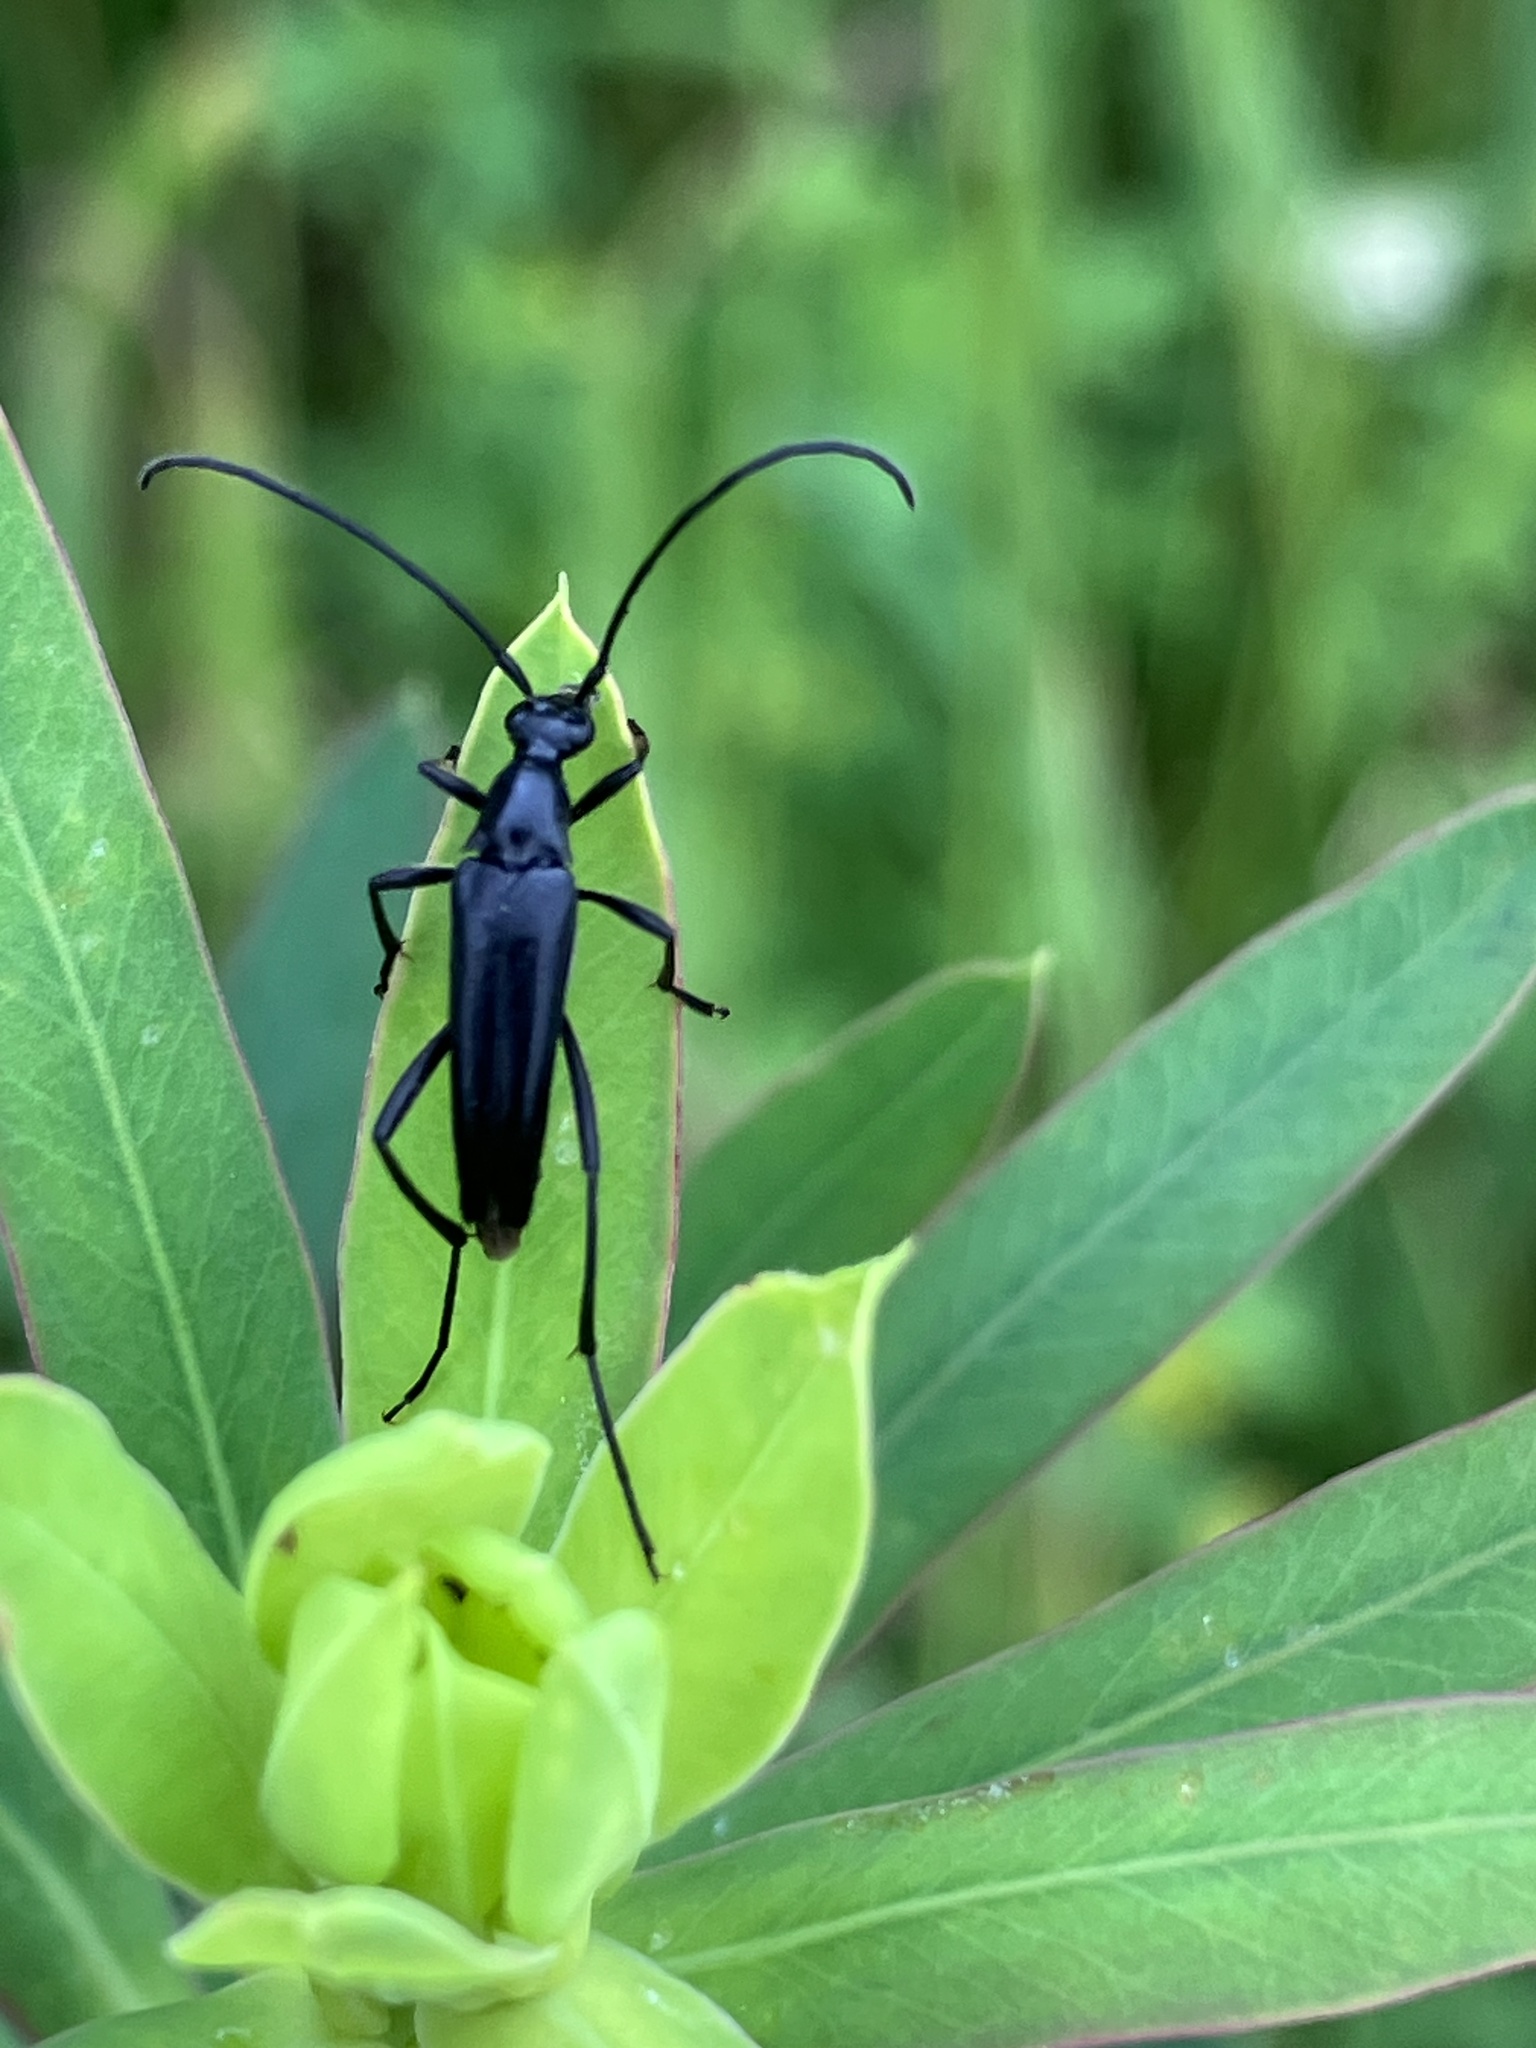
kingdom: Animalia
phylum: Arthropoda
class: Insecta
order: Coleoptera
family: Cerambycidae
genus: Stenurella
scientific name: Stenurella nigra
